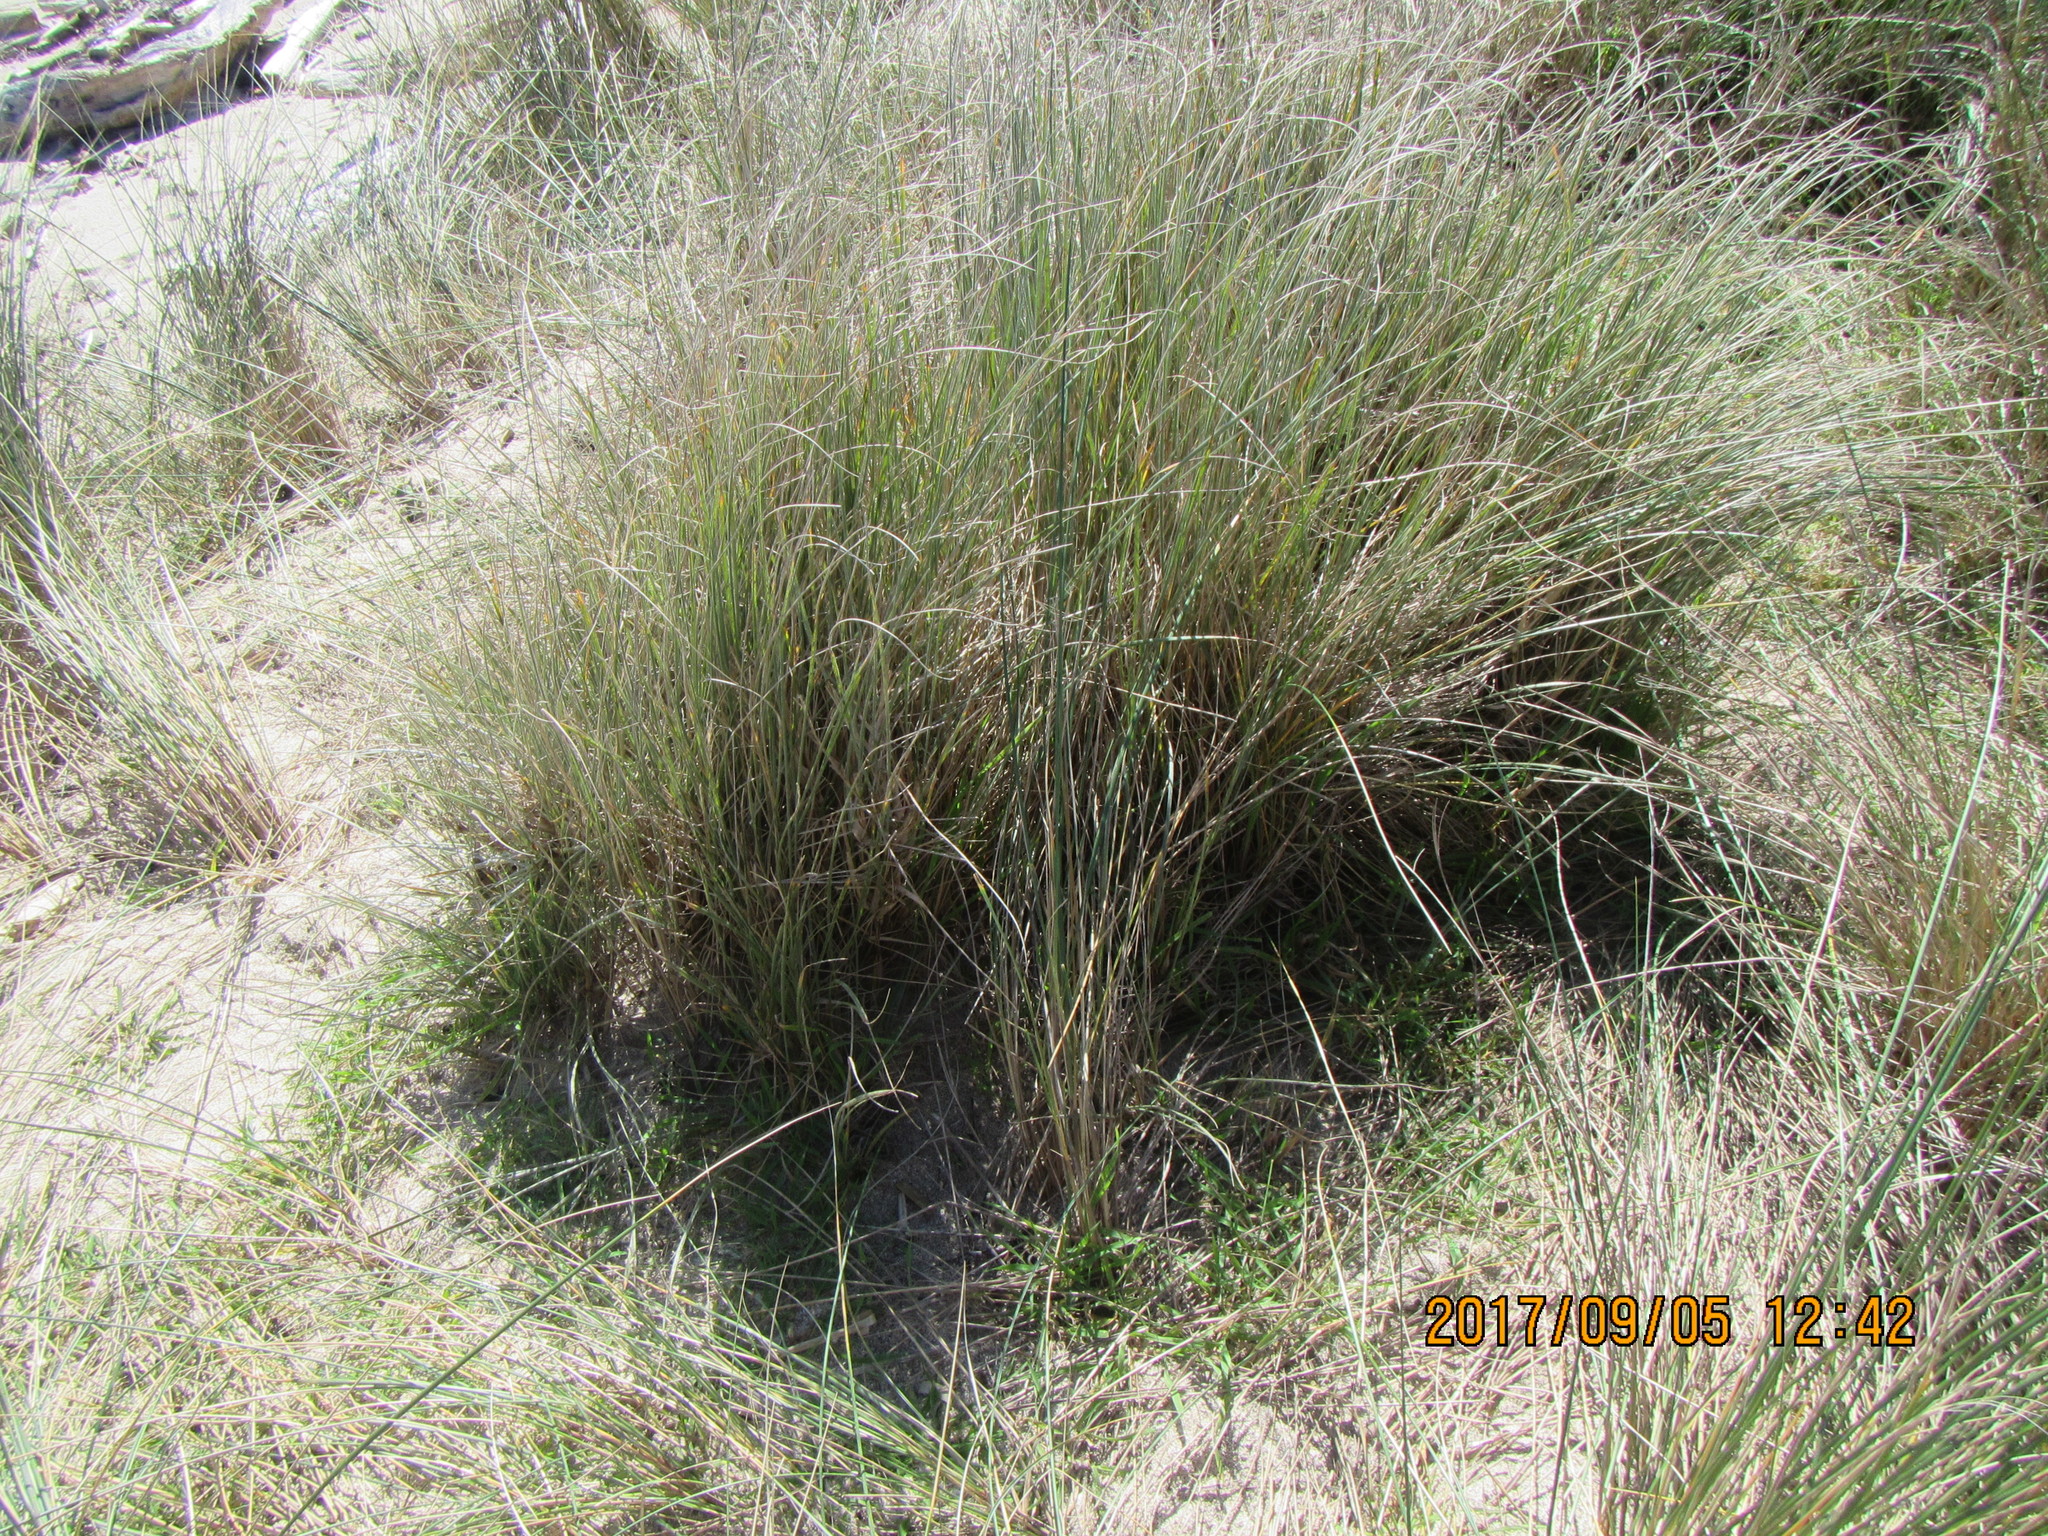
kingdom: Plantae
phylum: Tracheophyta
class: Liliopsida
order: Poales
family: Poaceae
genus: Calamagrostis
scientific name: Calamagrostis arenaria
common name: European beachgrass
